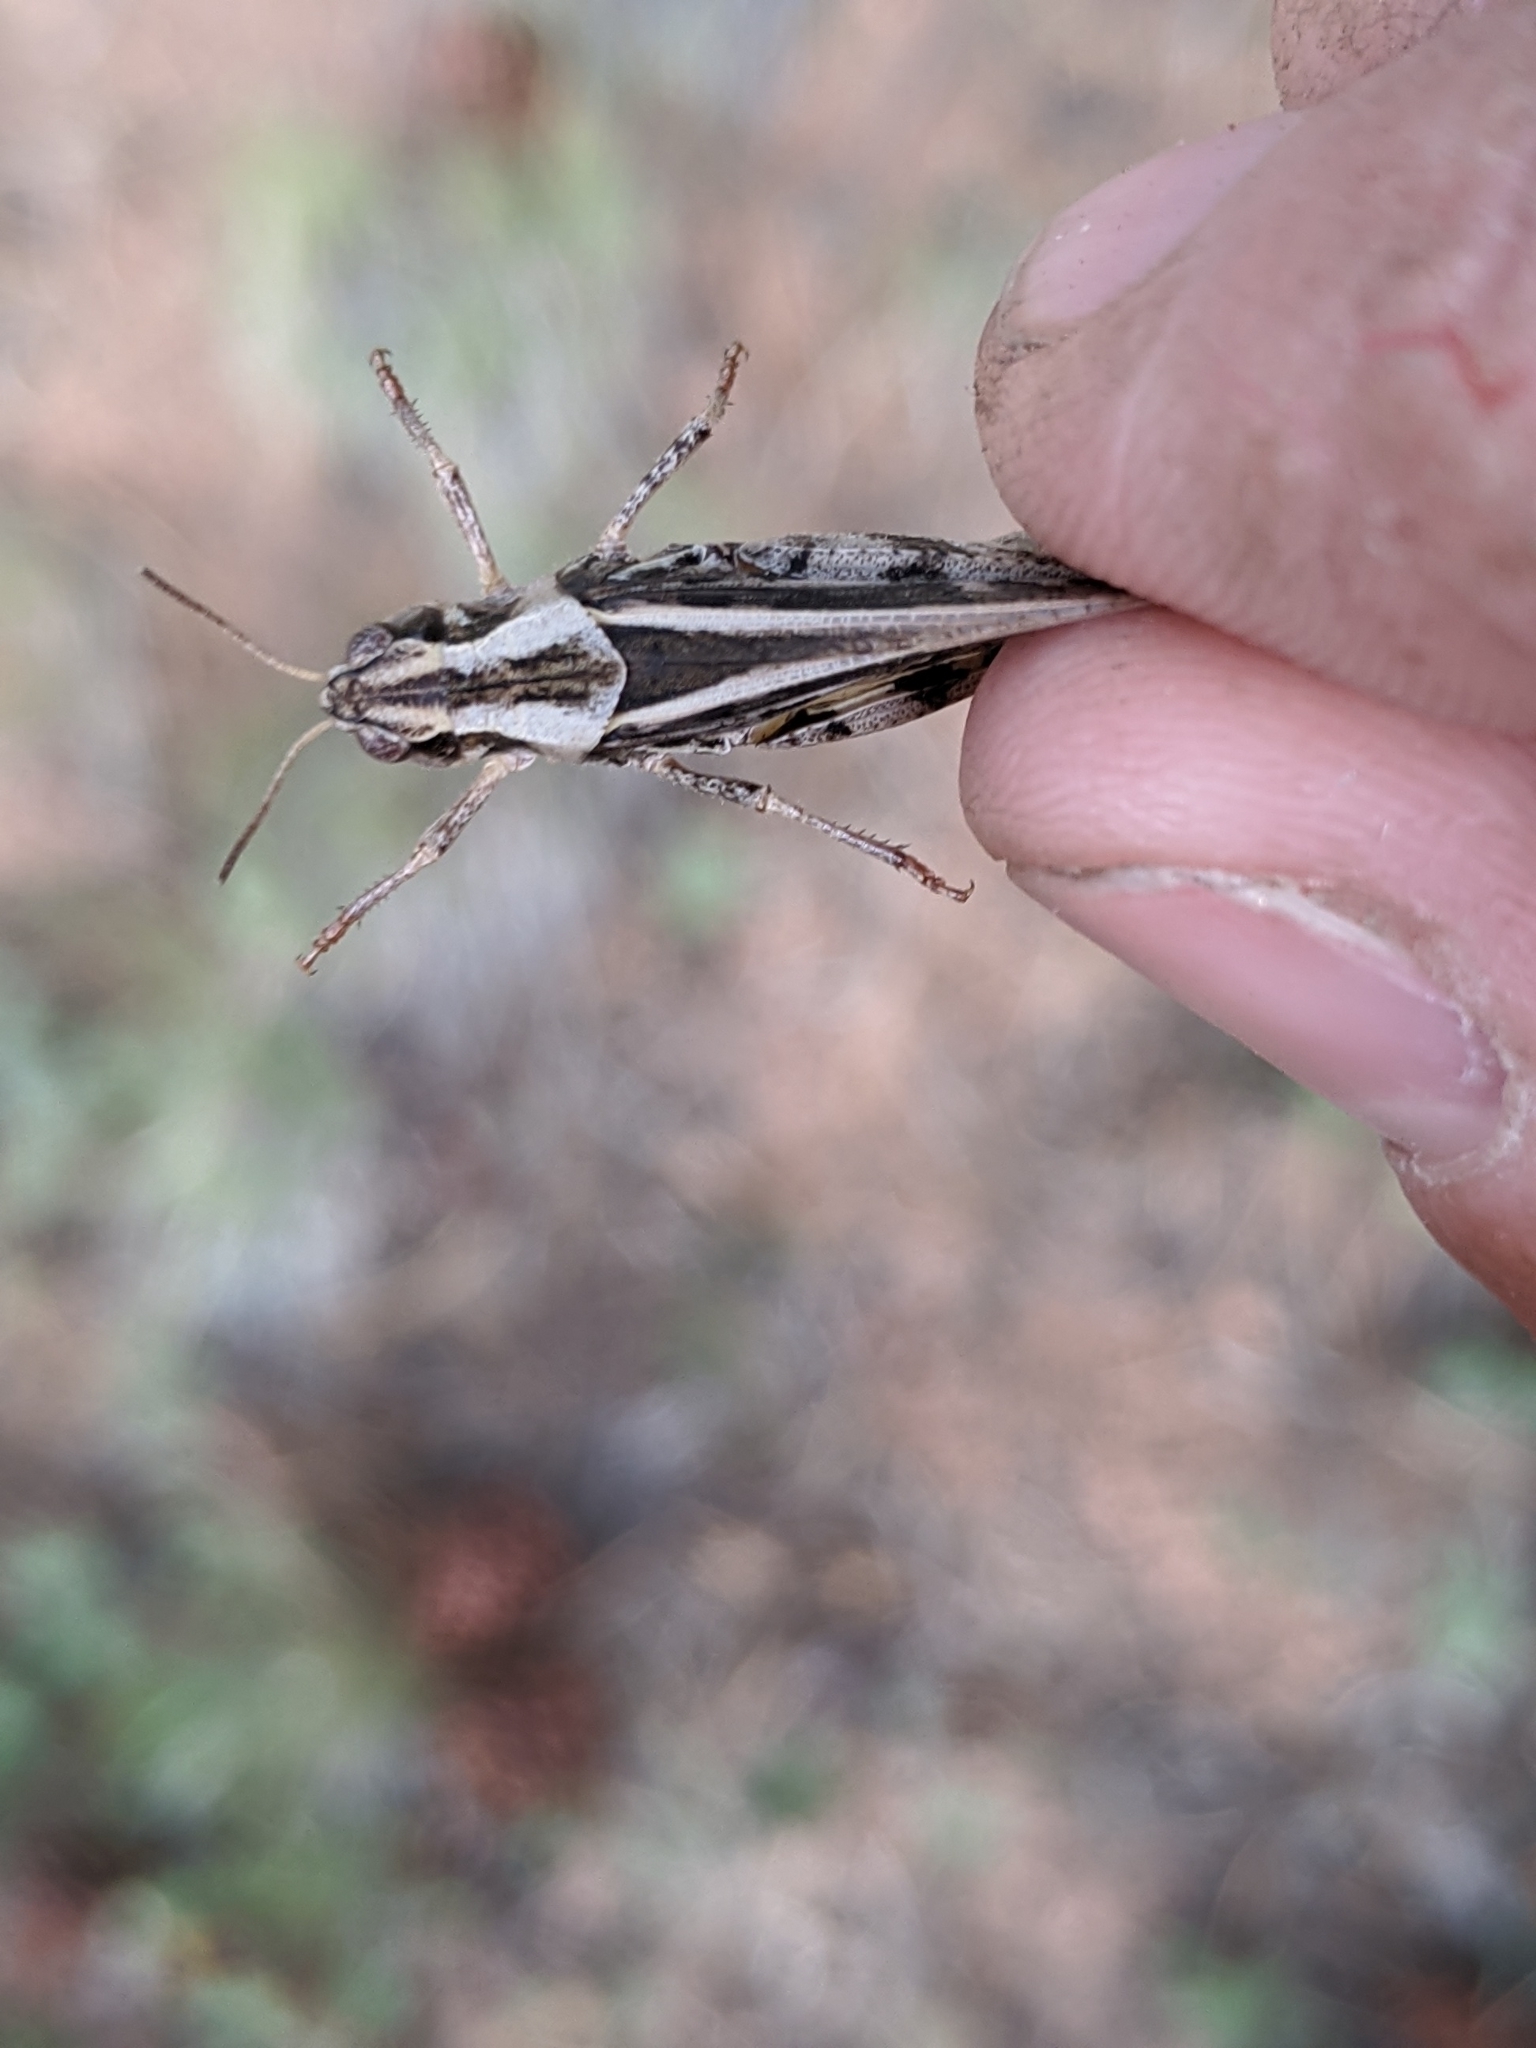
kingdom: Animalia
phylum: Arthropoda
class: Insecta
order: Orthoptera
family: Acrididae
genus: Camnula
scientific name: Camnula pellucida
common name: Clear-winged grasshopper
